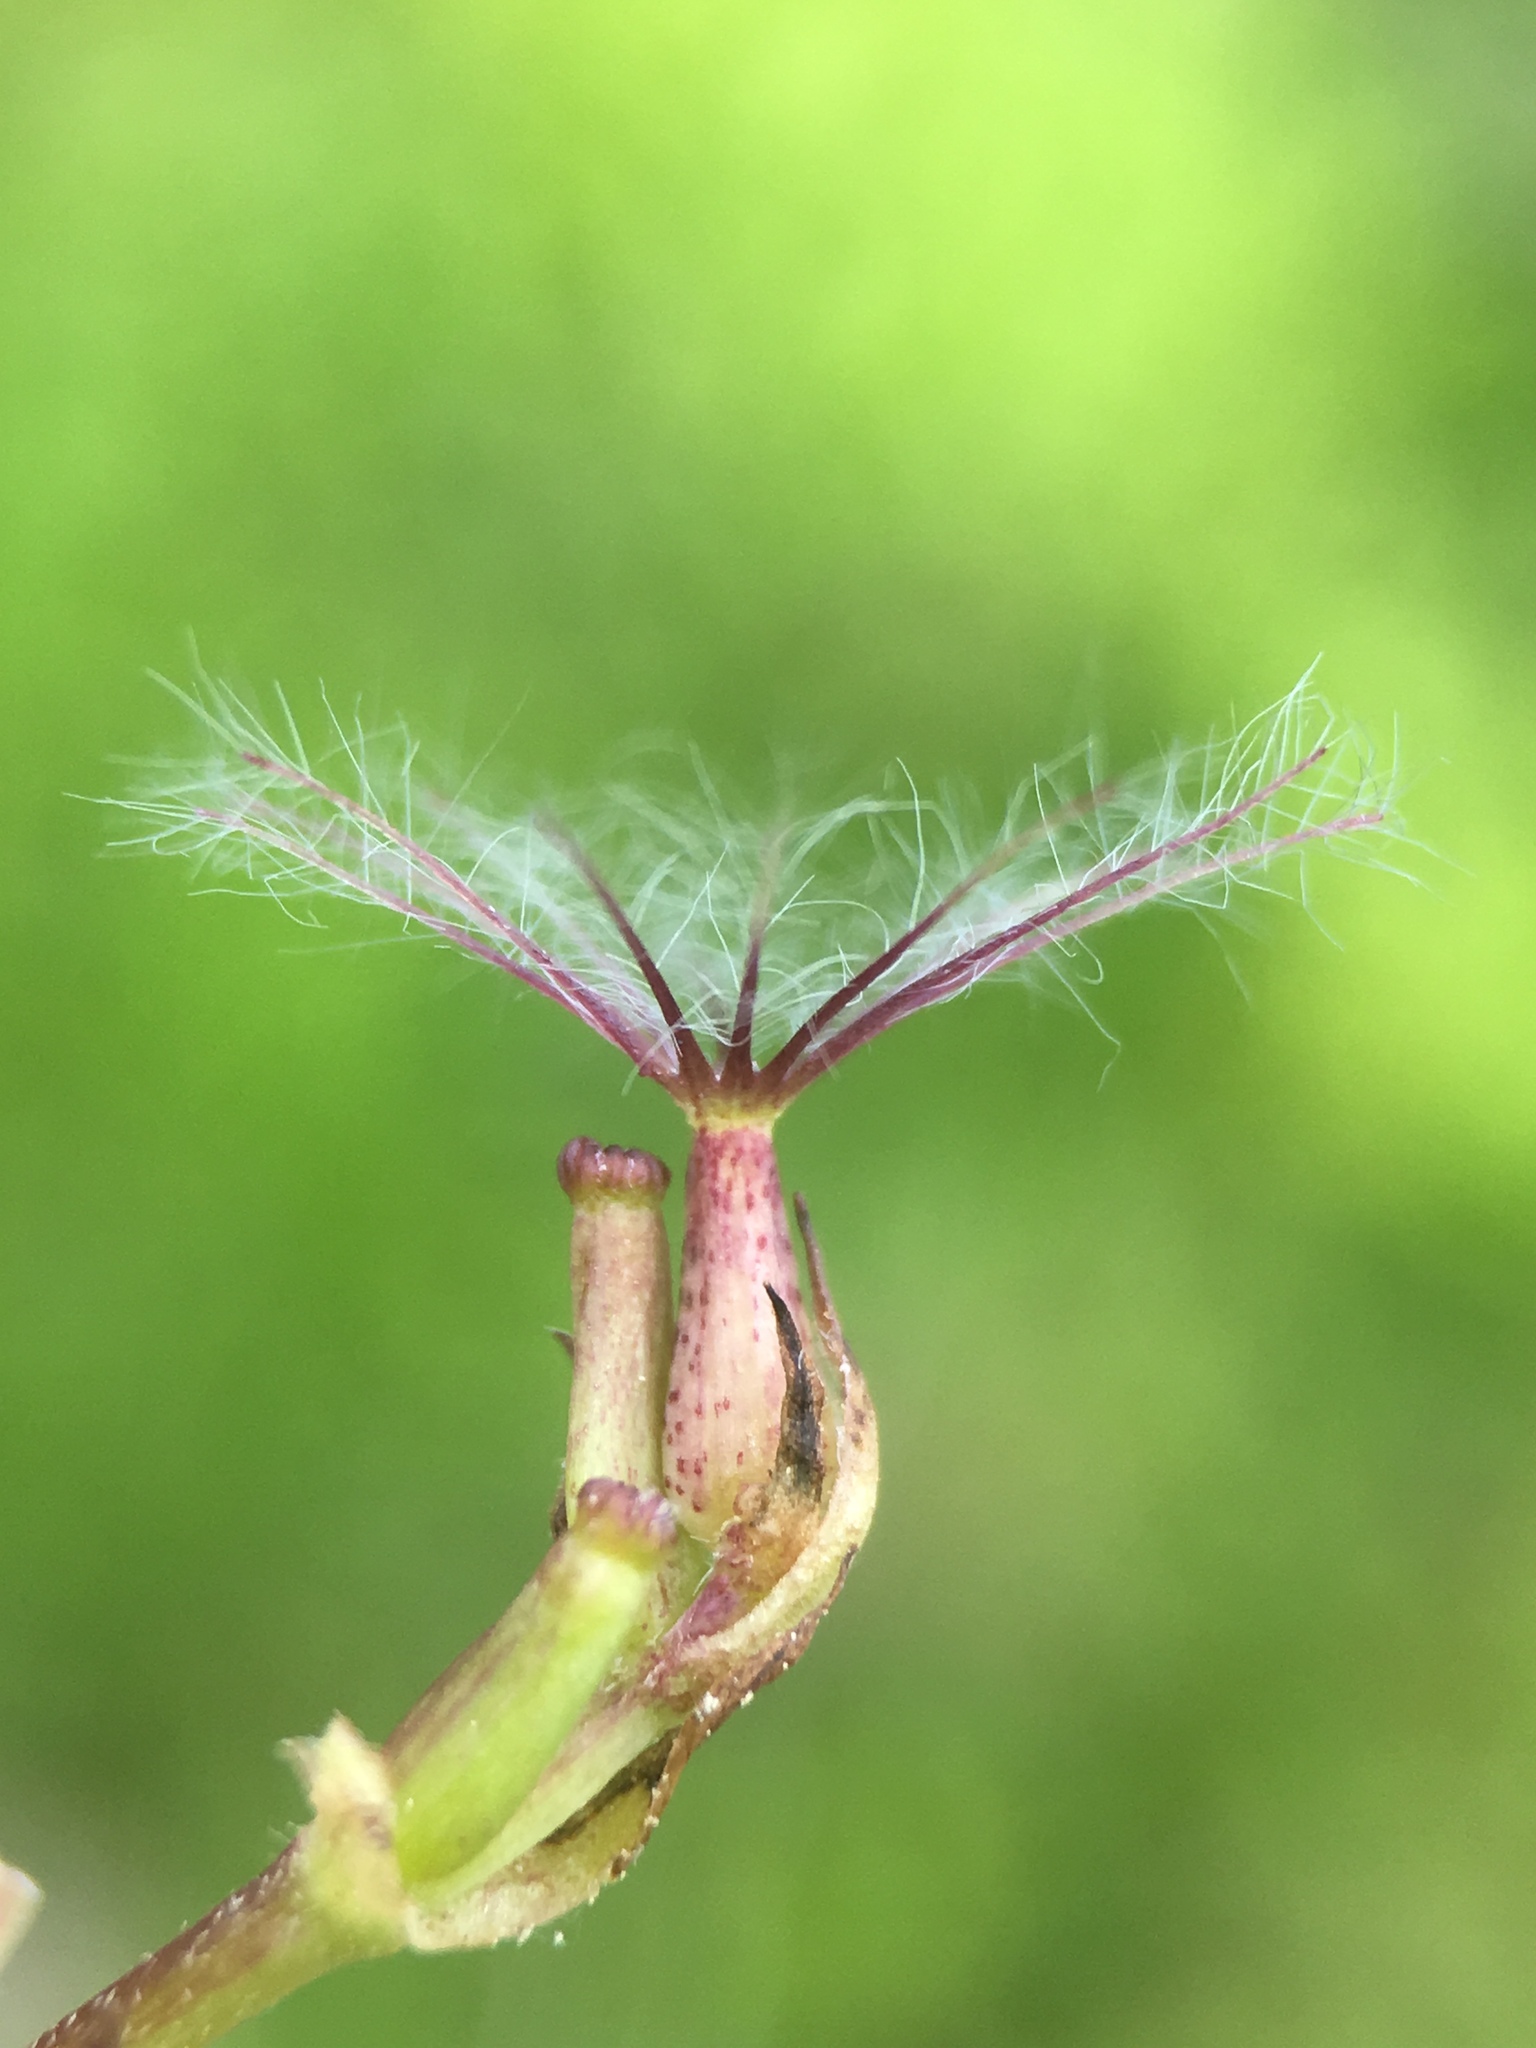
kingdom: Plantae
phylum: Tracheophyta
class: Magnoliopsida
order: Dipsacales
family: Caprifoliaceae
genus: Valeriana
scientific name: Valeriana sitchensis
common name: Pacific valerian
